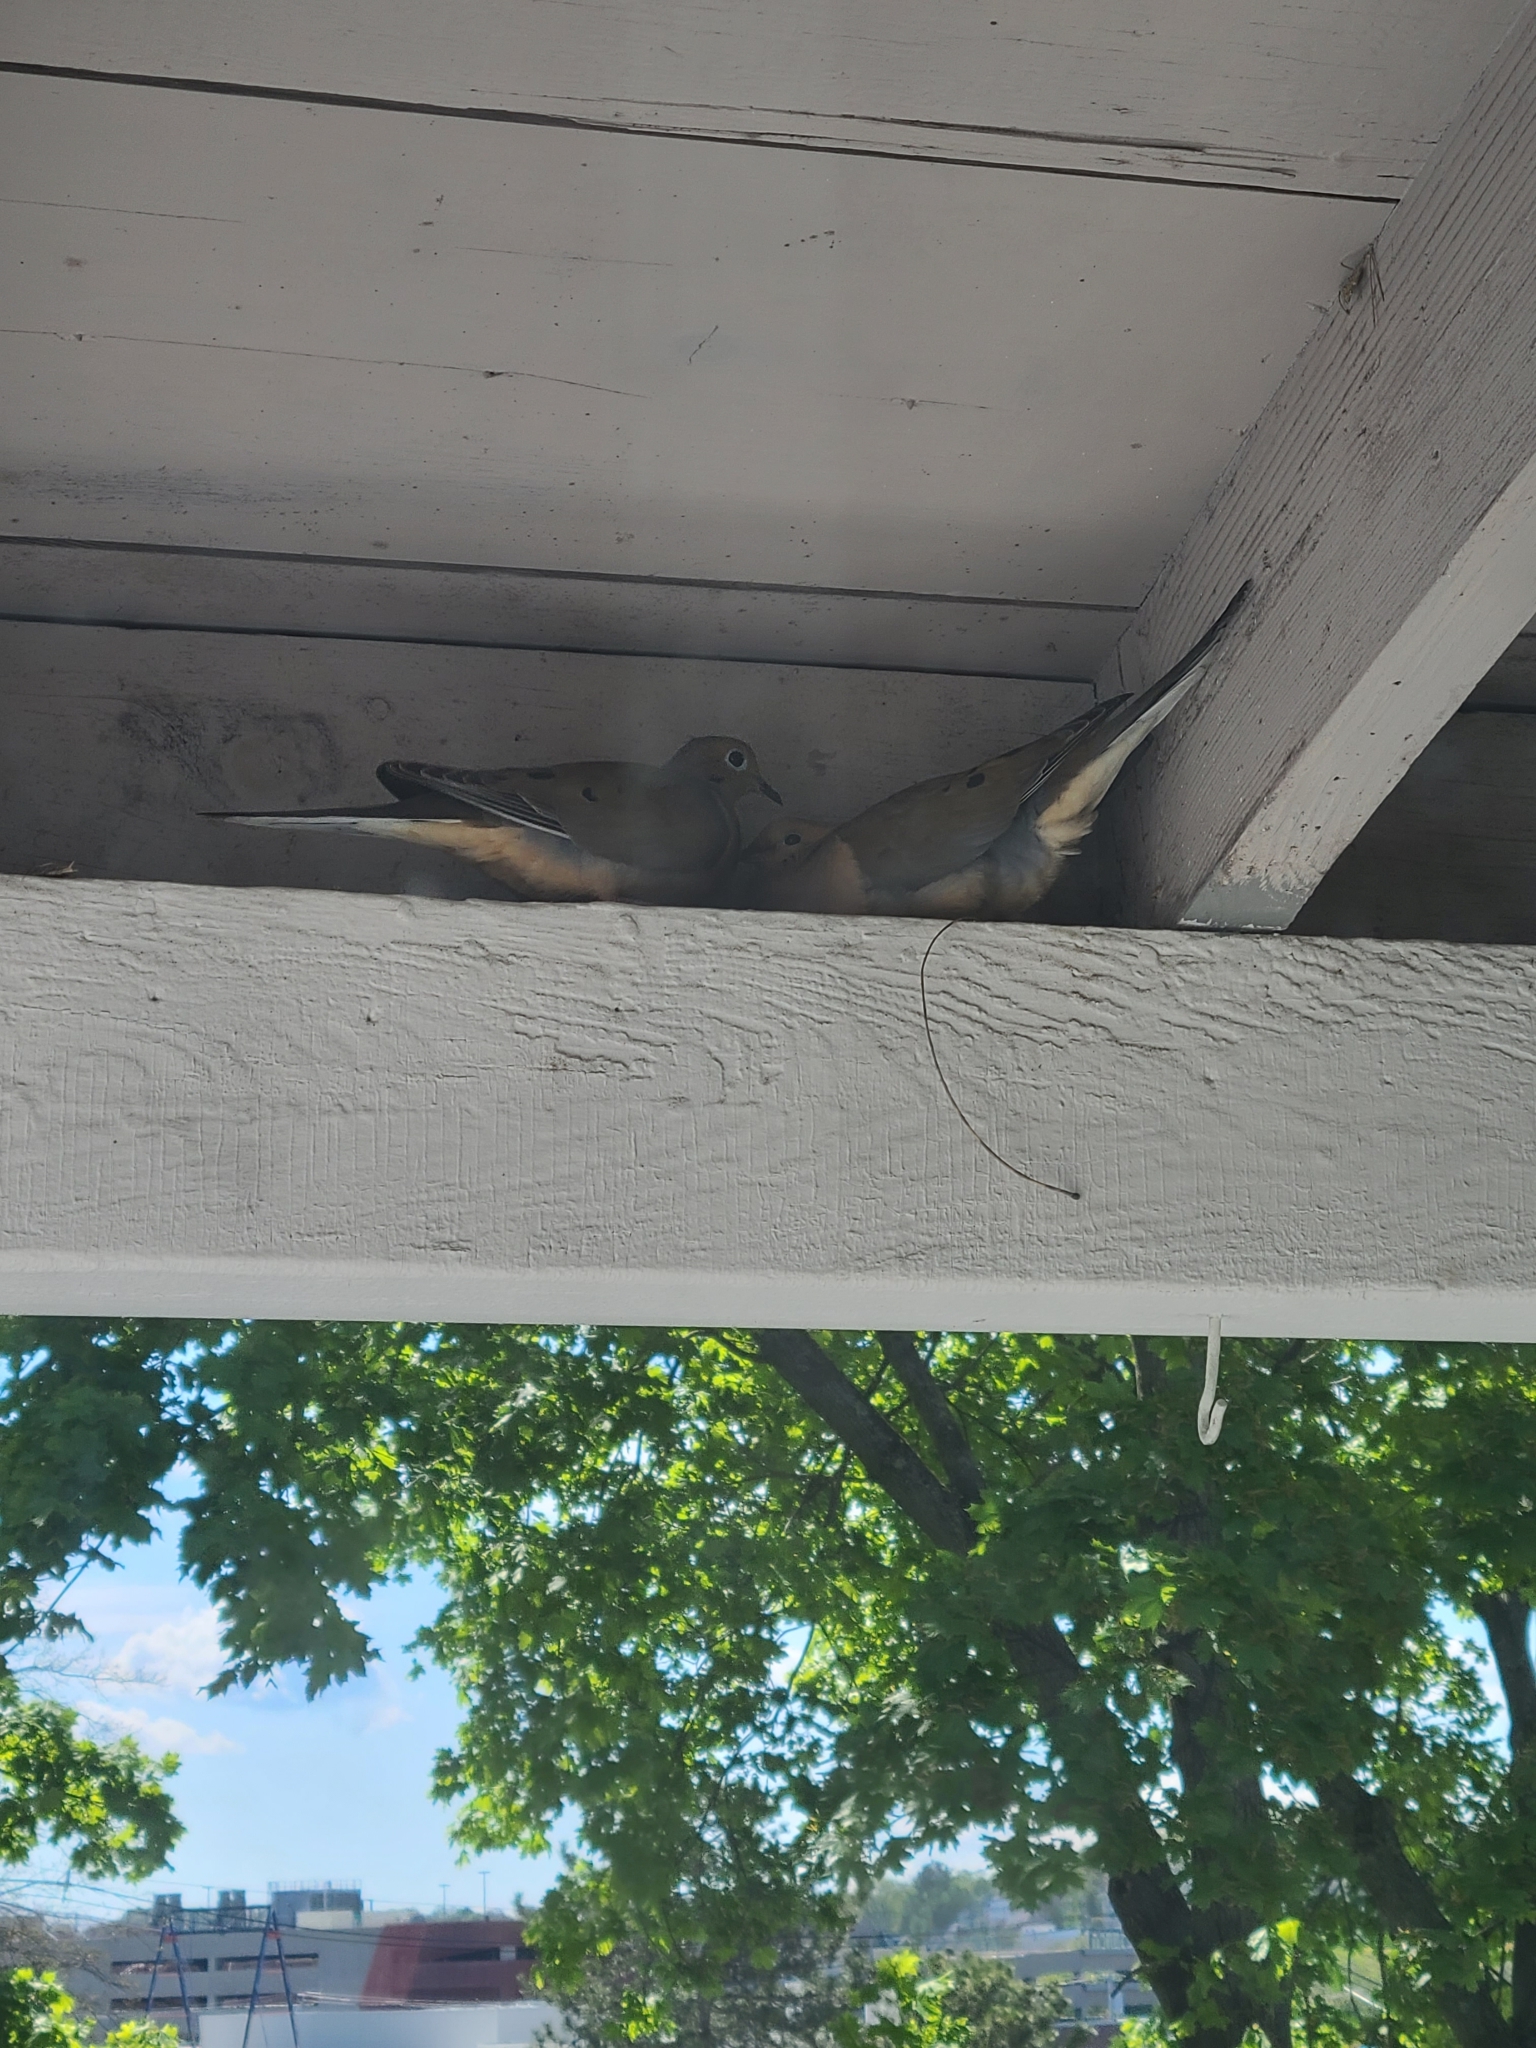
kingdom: Animalia
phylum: Chordata
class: Aves
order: Columbiformes
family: Columbidae
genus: Zenaida
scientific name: Zenaida macroura
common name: Mourning dove
